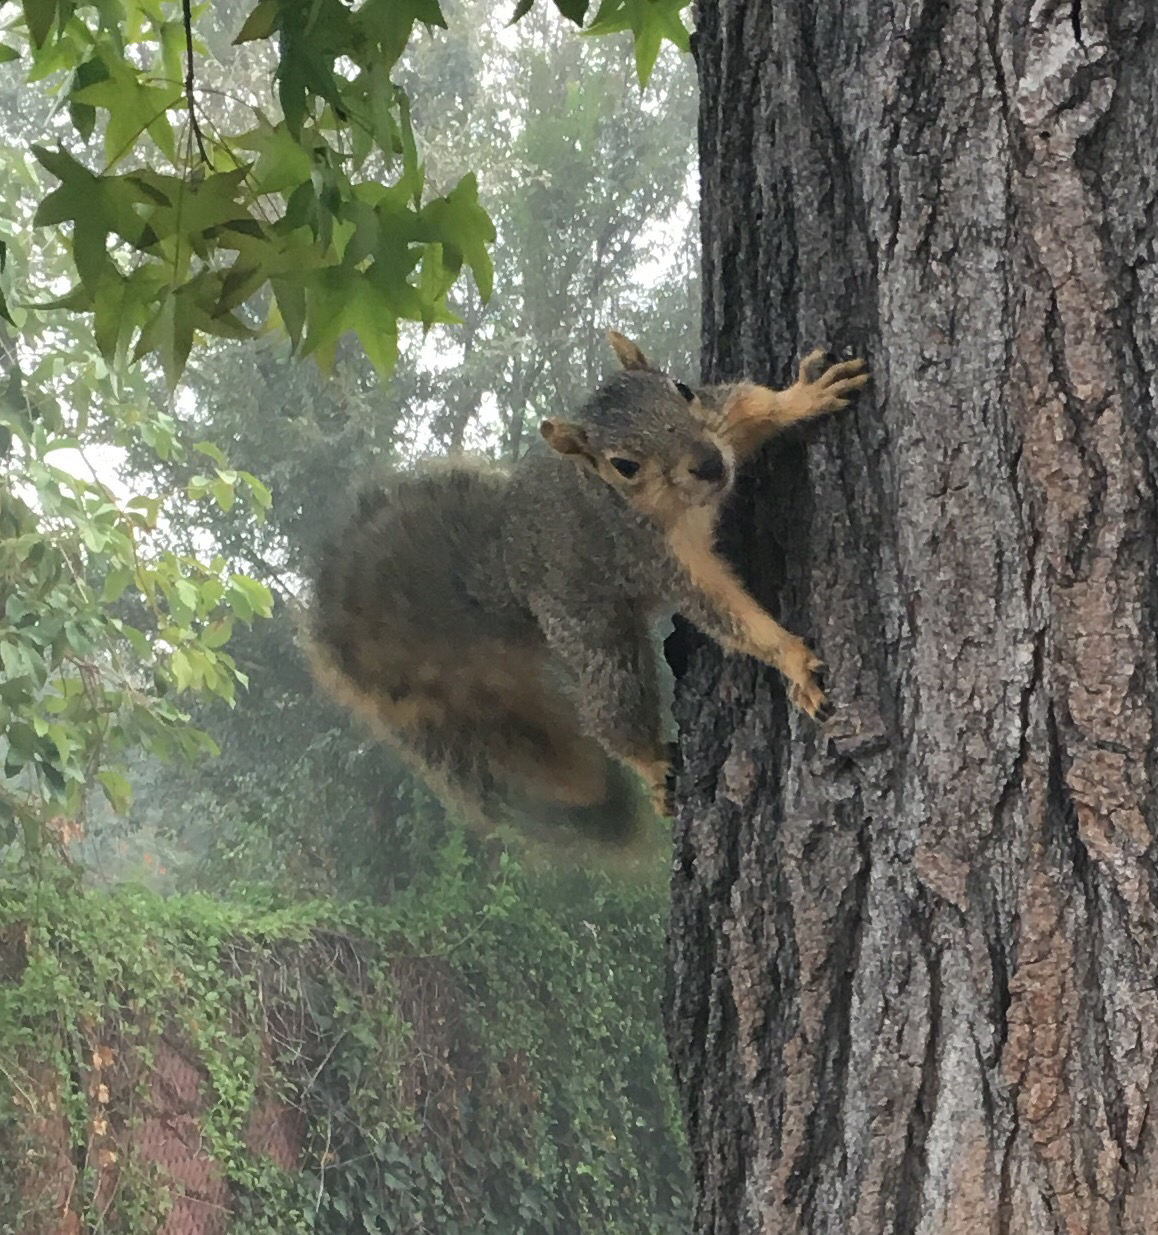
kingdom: Animalia
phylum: Chordata
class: Mammalia
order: Rodentia
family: Sciuridae
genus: Sciurus
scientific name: Sciurus niger
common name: Fox squirrel
